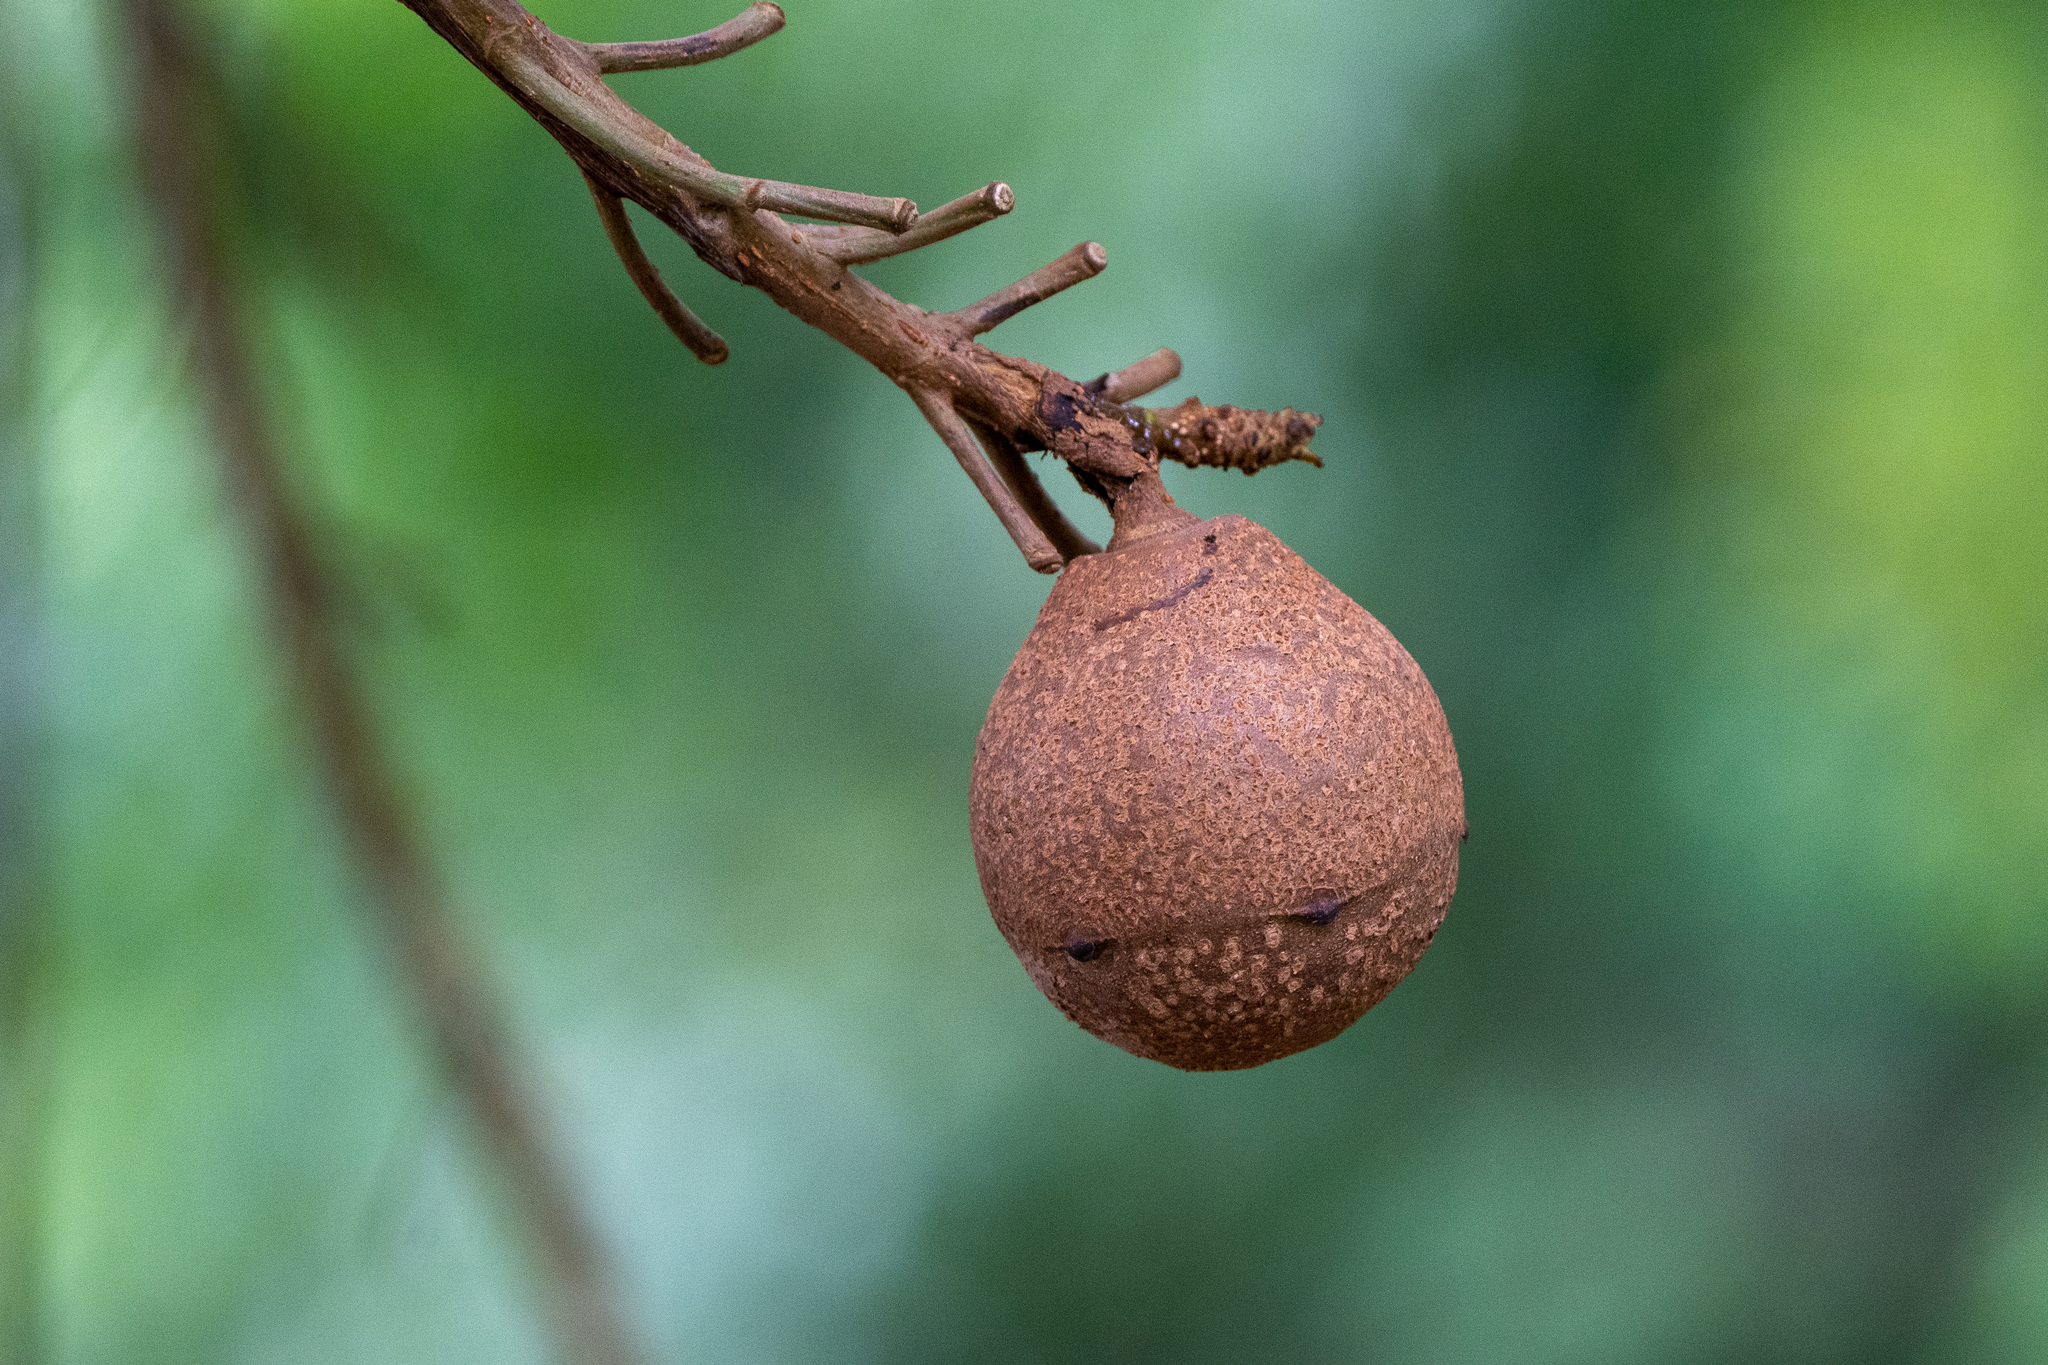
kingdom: Plantae
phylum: Tracheophyta
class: Magnoliopsida
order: Ericales
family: Lecythidaceae
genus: Couroupita
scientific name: Couroupita guianensis
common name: Cannonball tree
